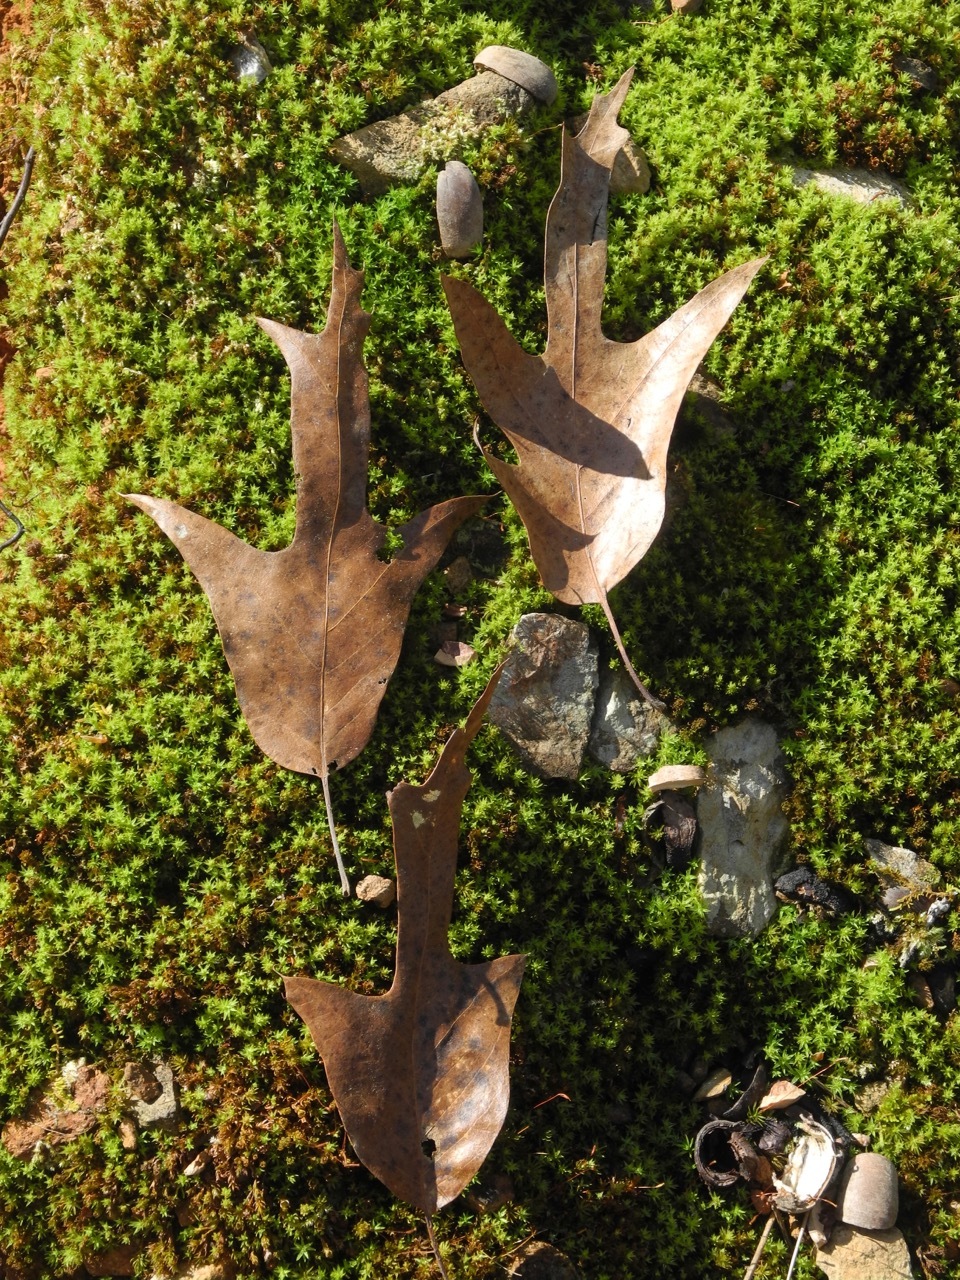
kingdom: Plantae
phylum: Tracheophyta
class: Magnoliopsida
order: Fagales
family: Fagaceae
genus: Quercus
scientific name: Quercus falcata
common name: Southern red oak
